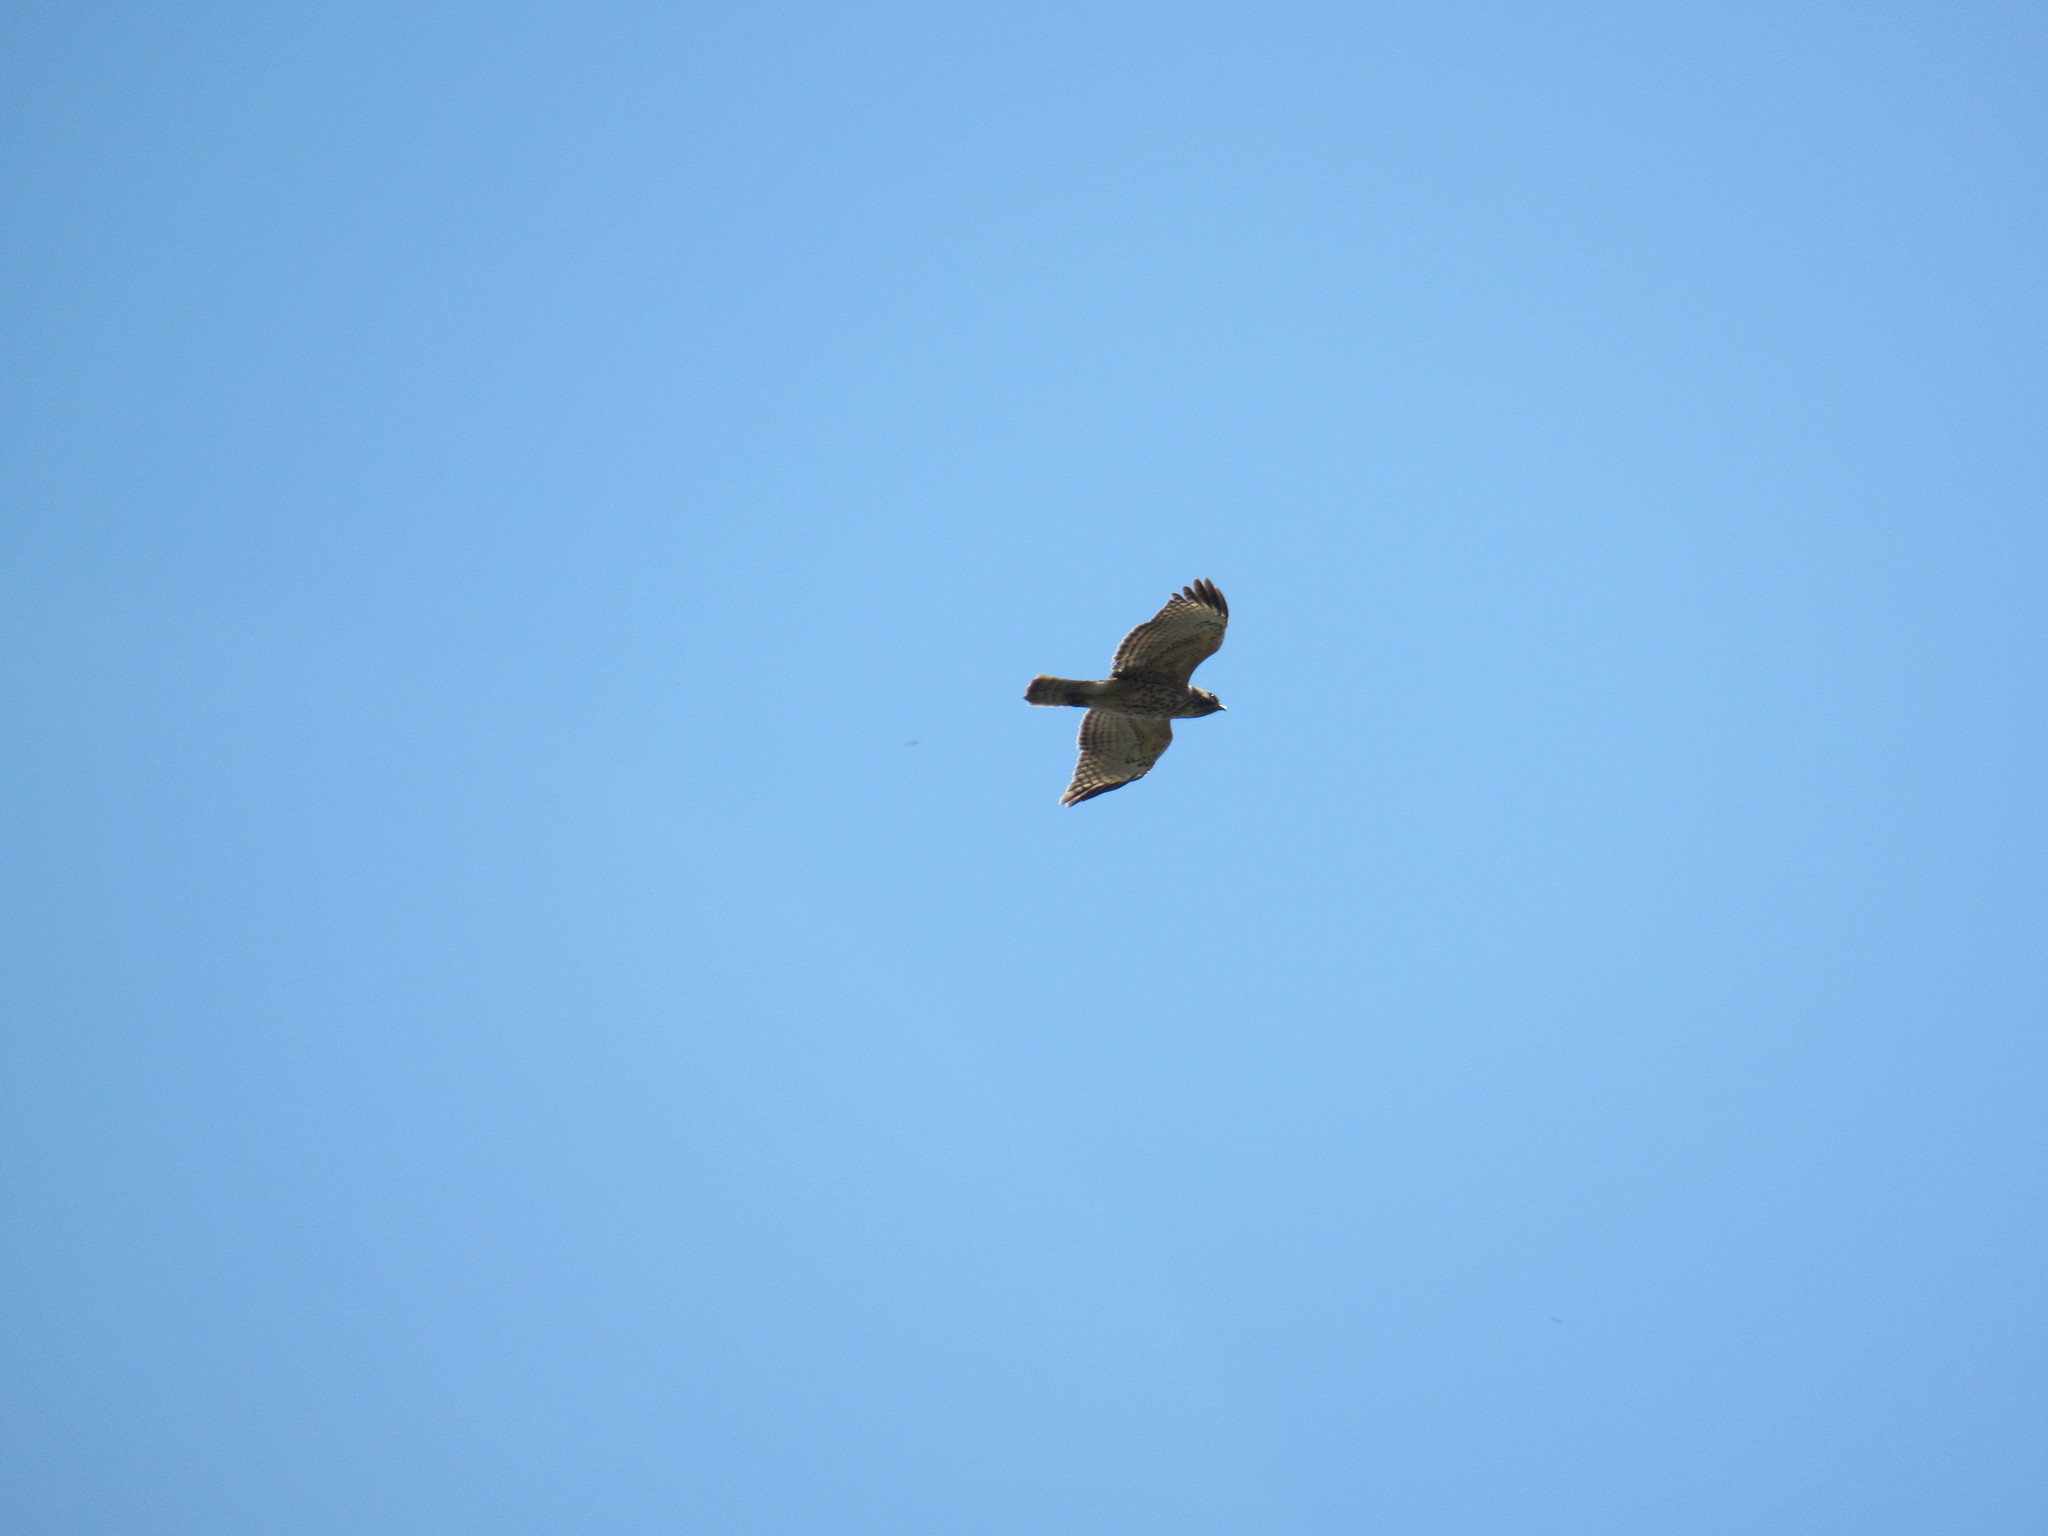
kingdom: Animalia
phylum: Chordata
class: Aves
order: Accipitriformes
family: Accipitridae
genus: Buteo
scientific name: Buteo lineatus
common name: Red-shouldered hawk
